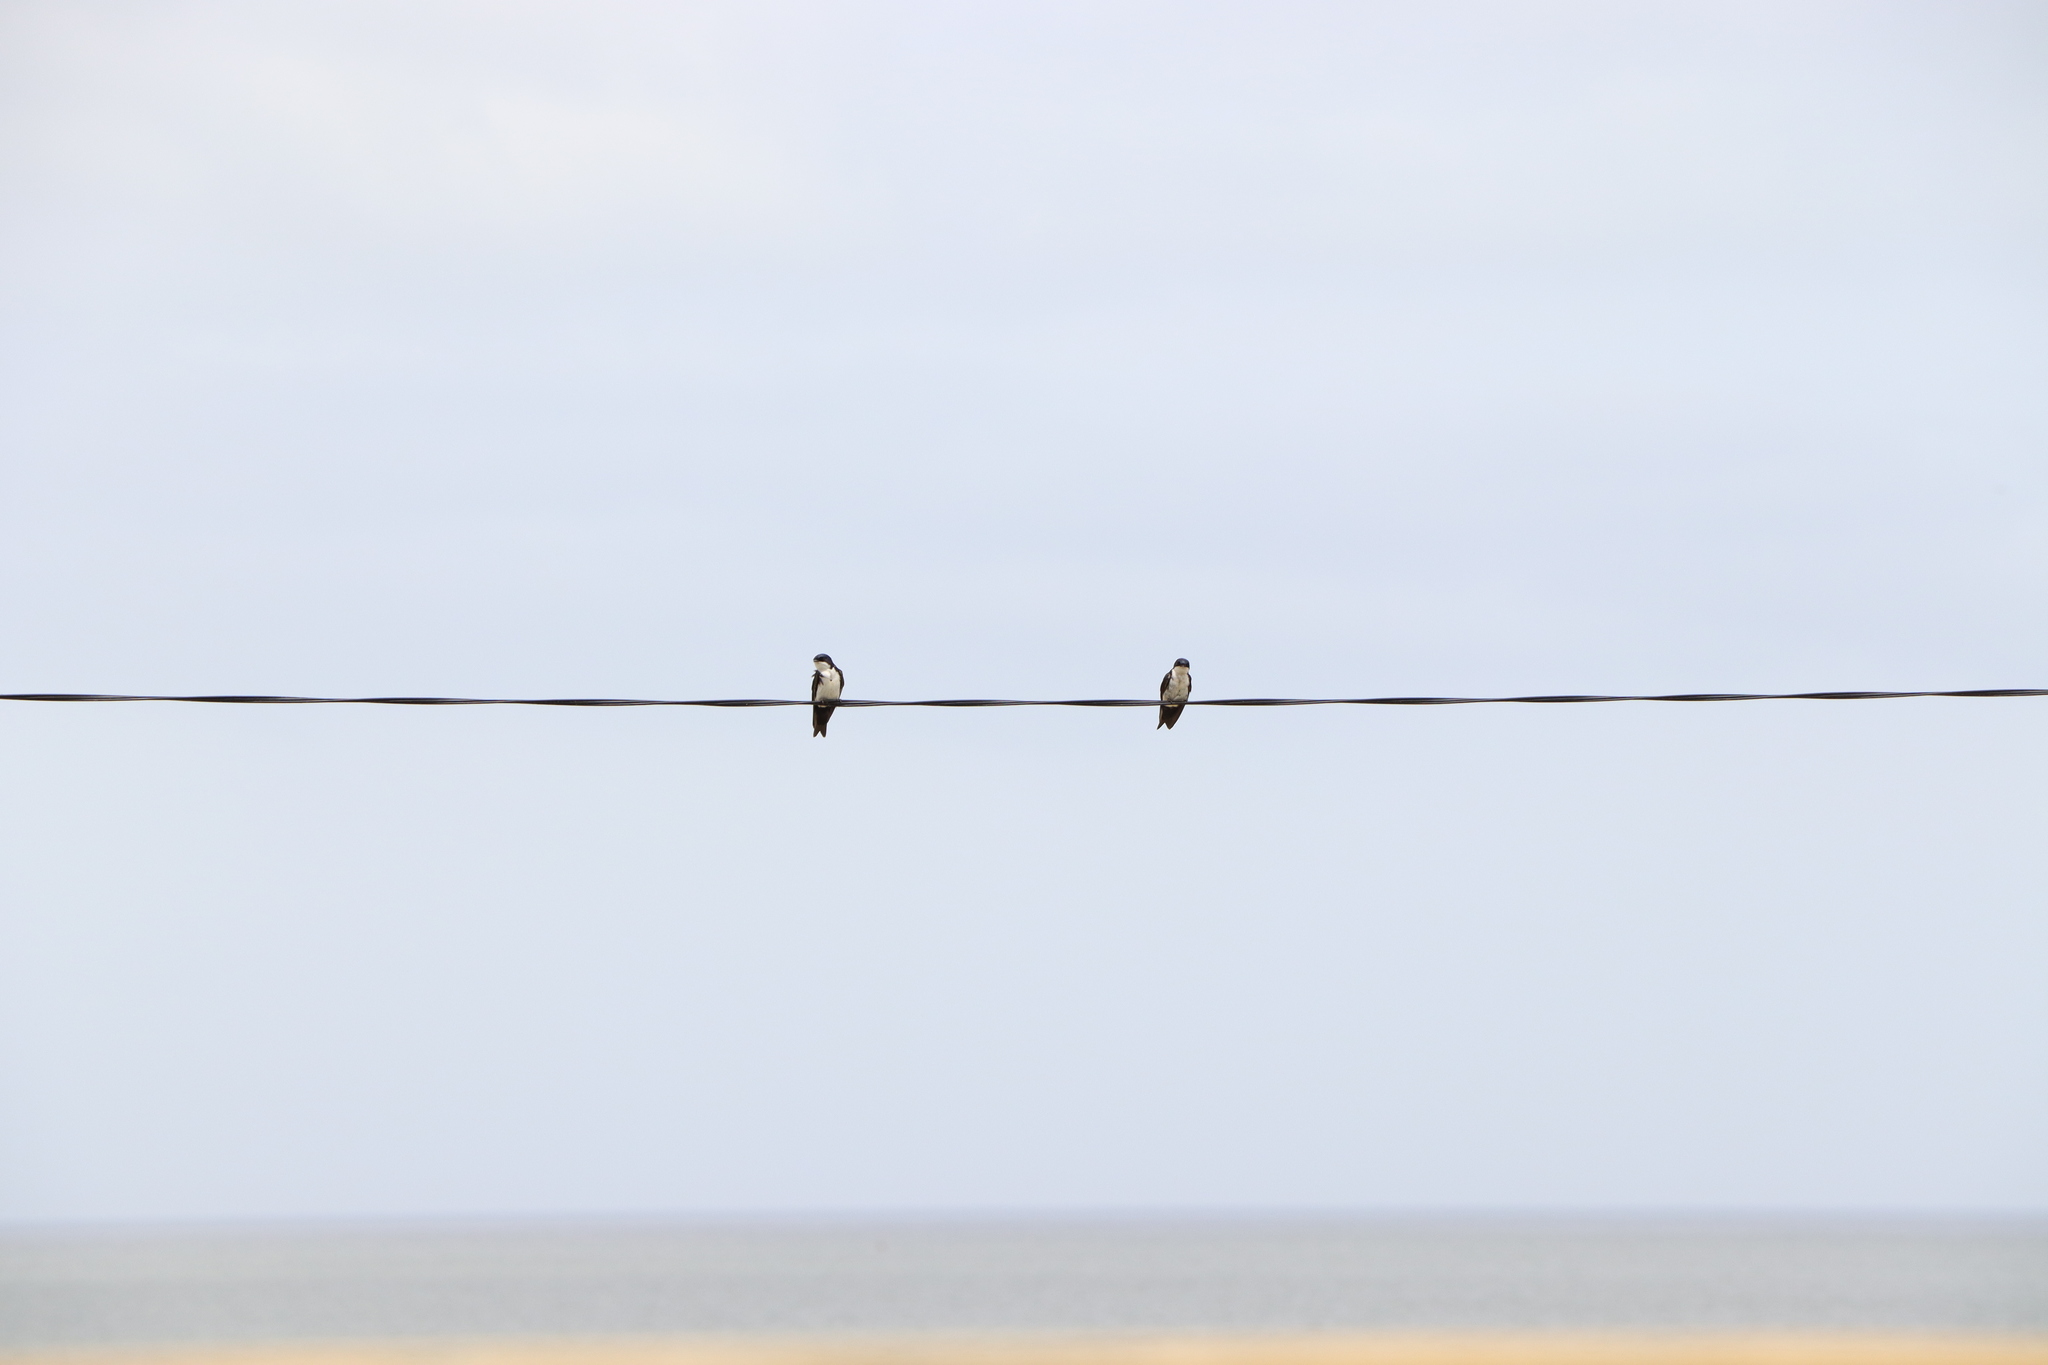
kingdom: Animalia
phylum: Chordata
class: Aves
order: Passeriformes
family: Hirundinidae
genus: Notiochelidon
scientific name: Notiochelidon cyanoleuca
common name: Blue-and-white swallow
